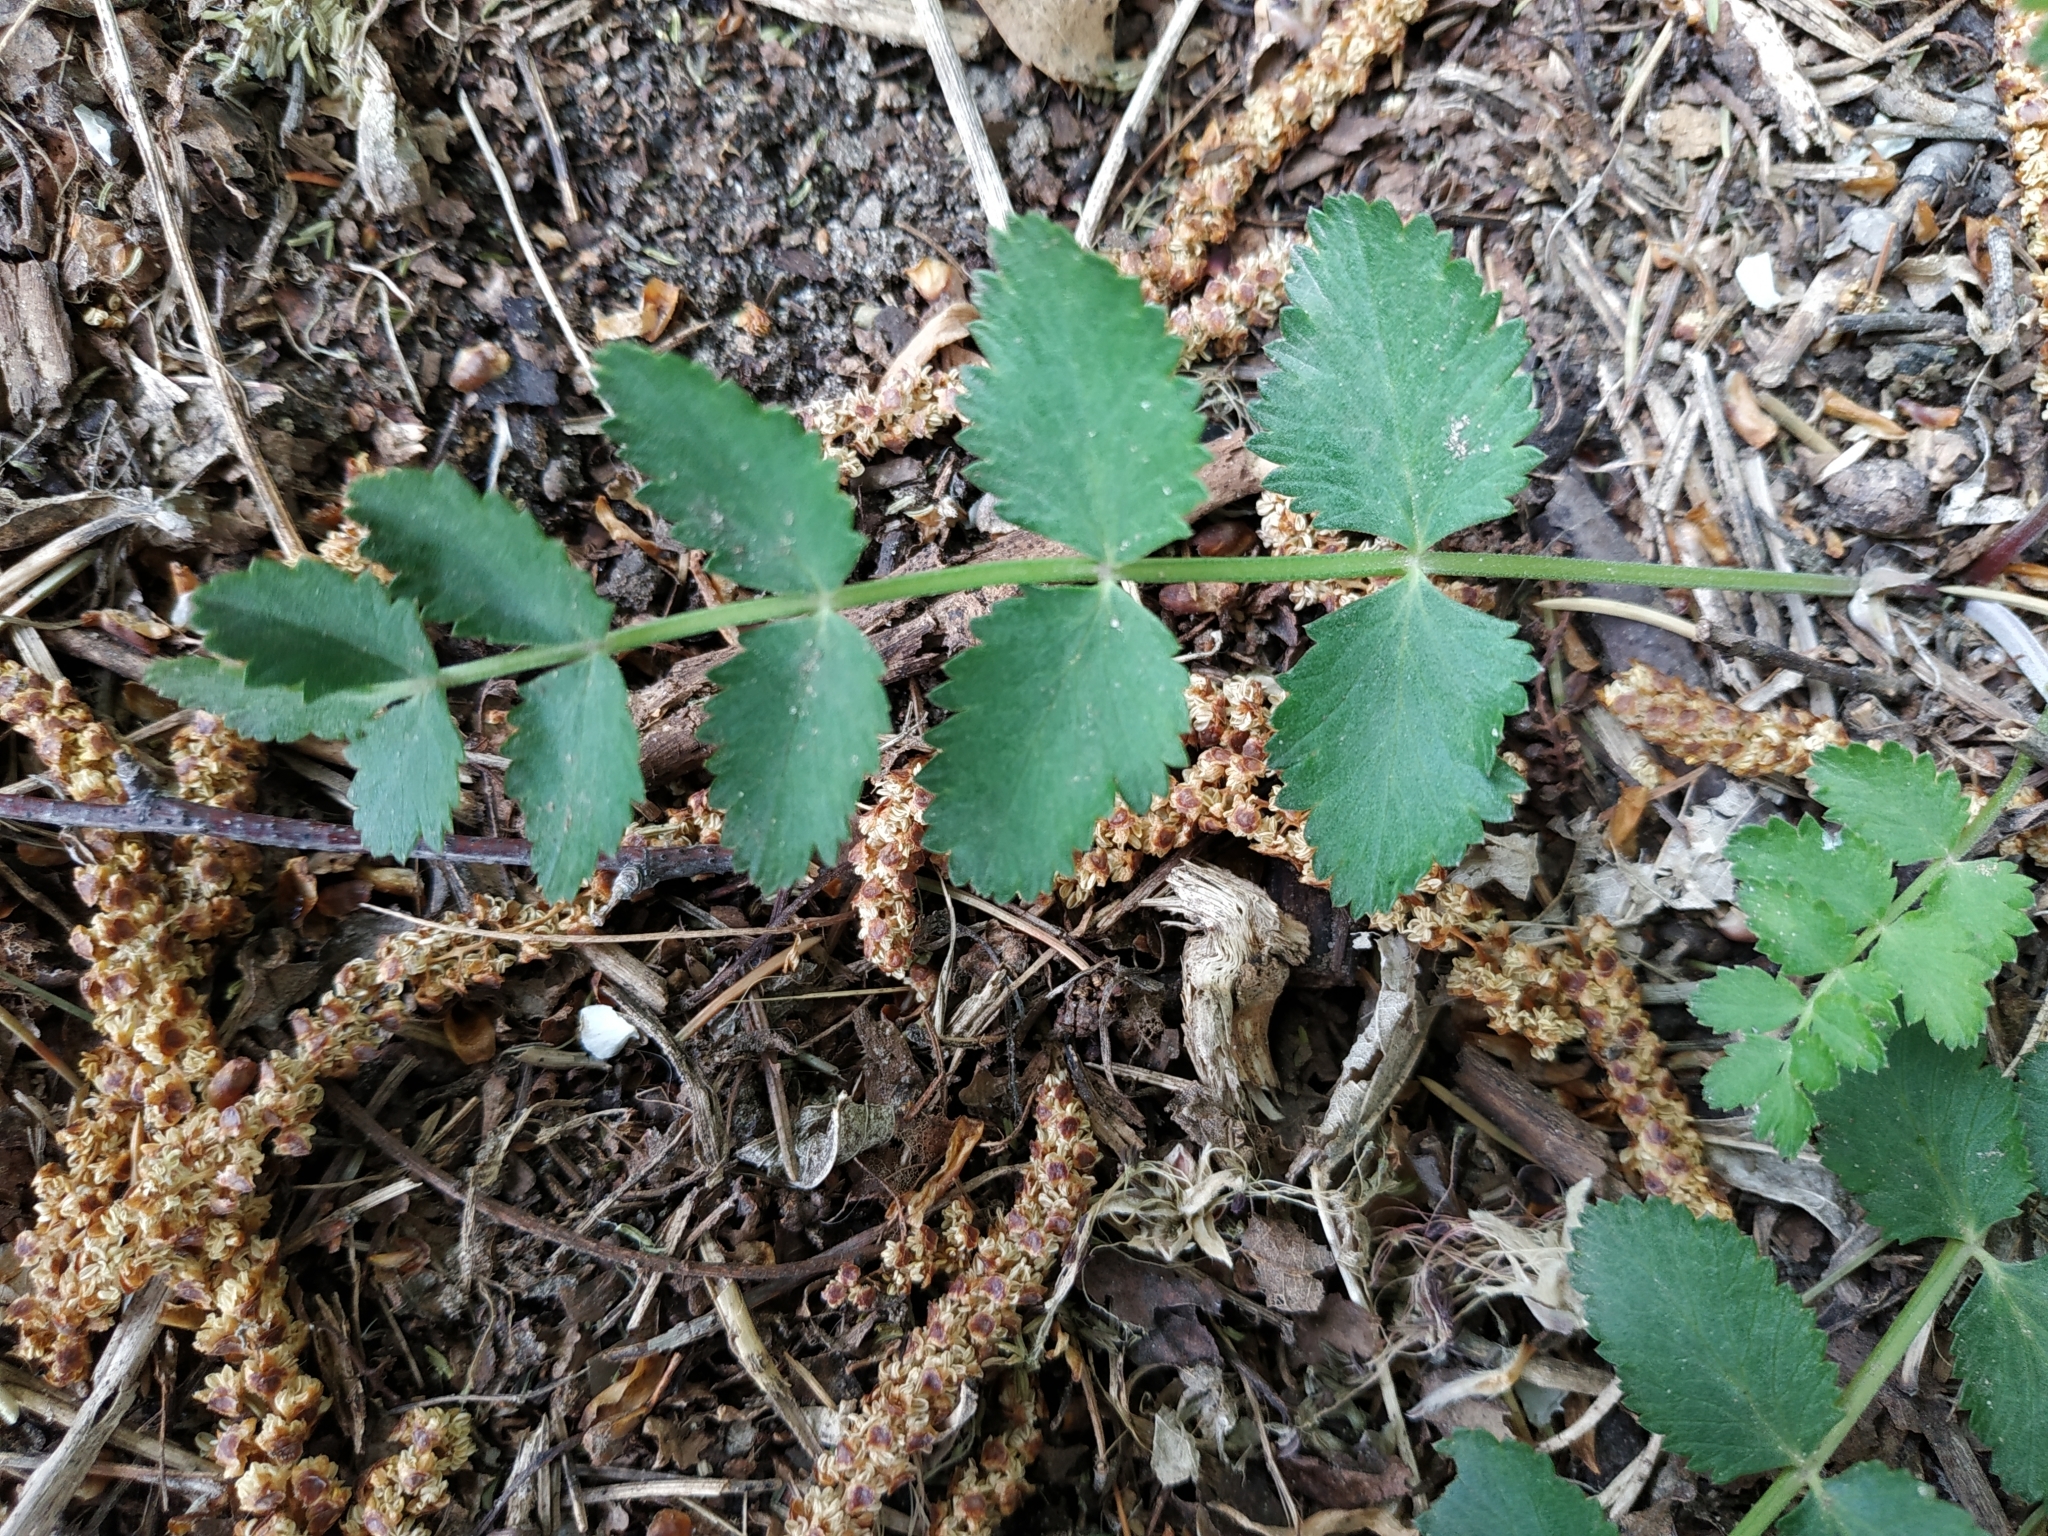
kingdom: Plantae
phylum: Tracheophyta
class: Magnoliopsida
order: Apiales
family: Apiaceae
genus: Pimpinella
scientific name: Pimpinella saxifraga
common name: Burnet-saxifrage
